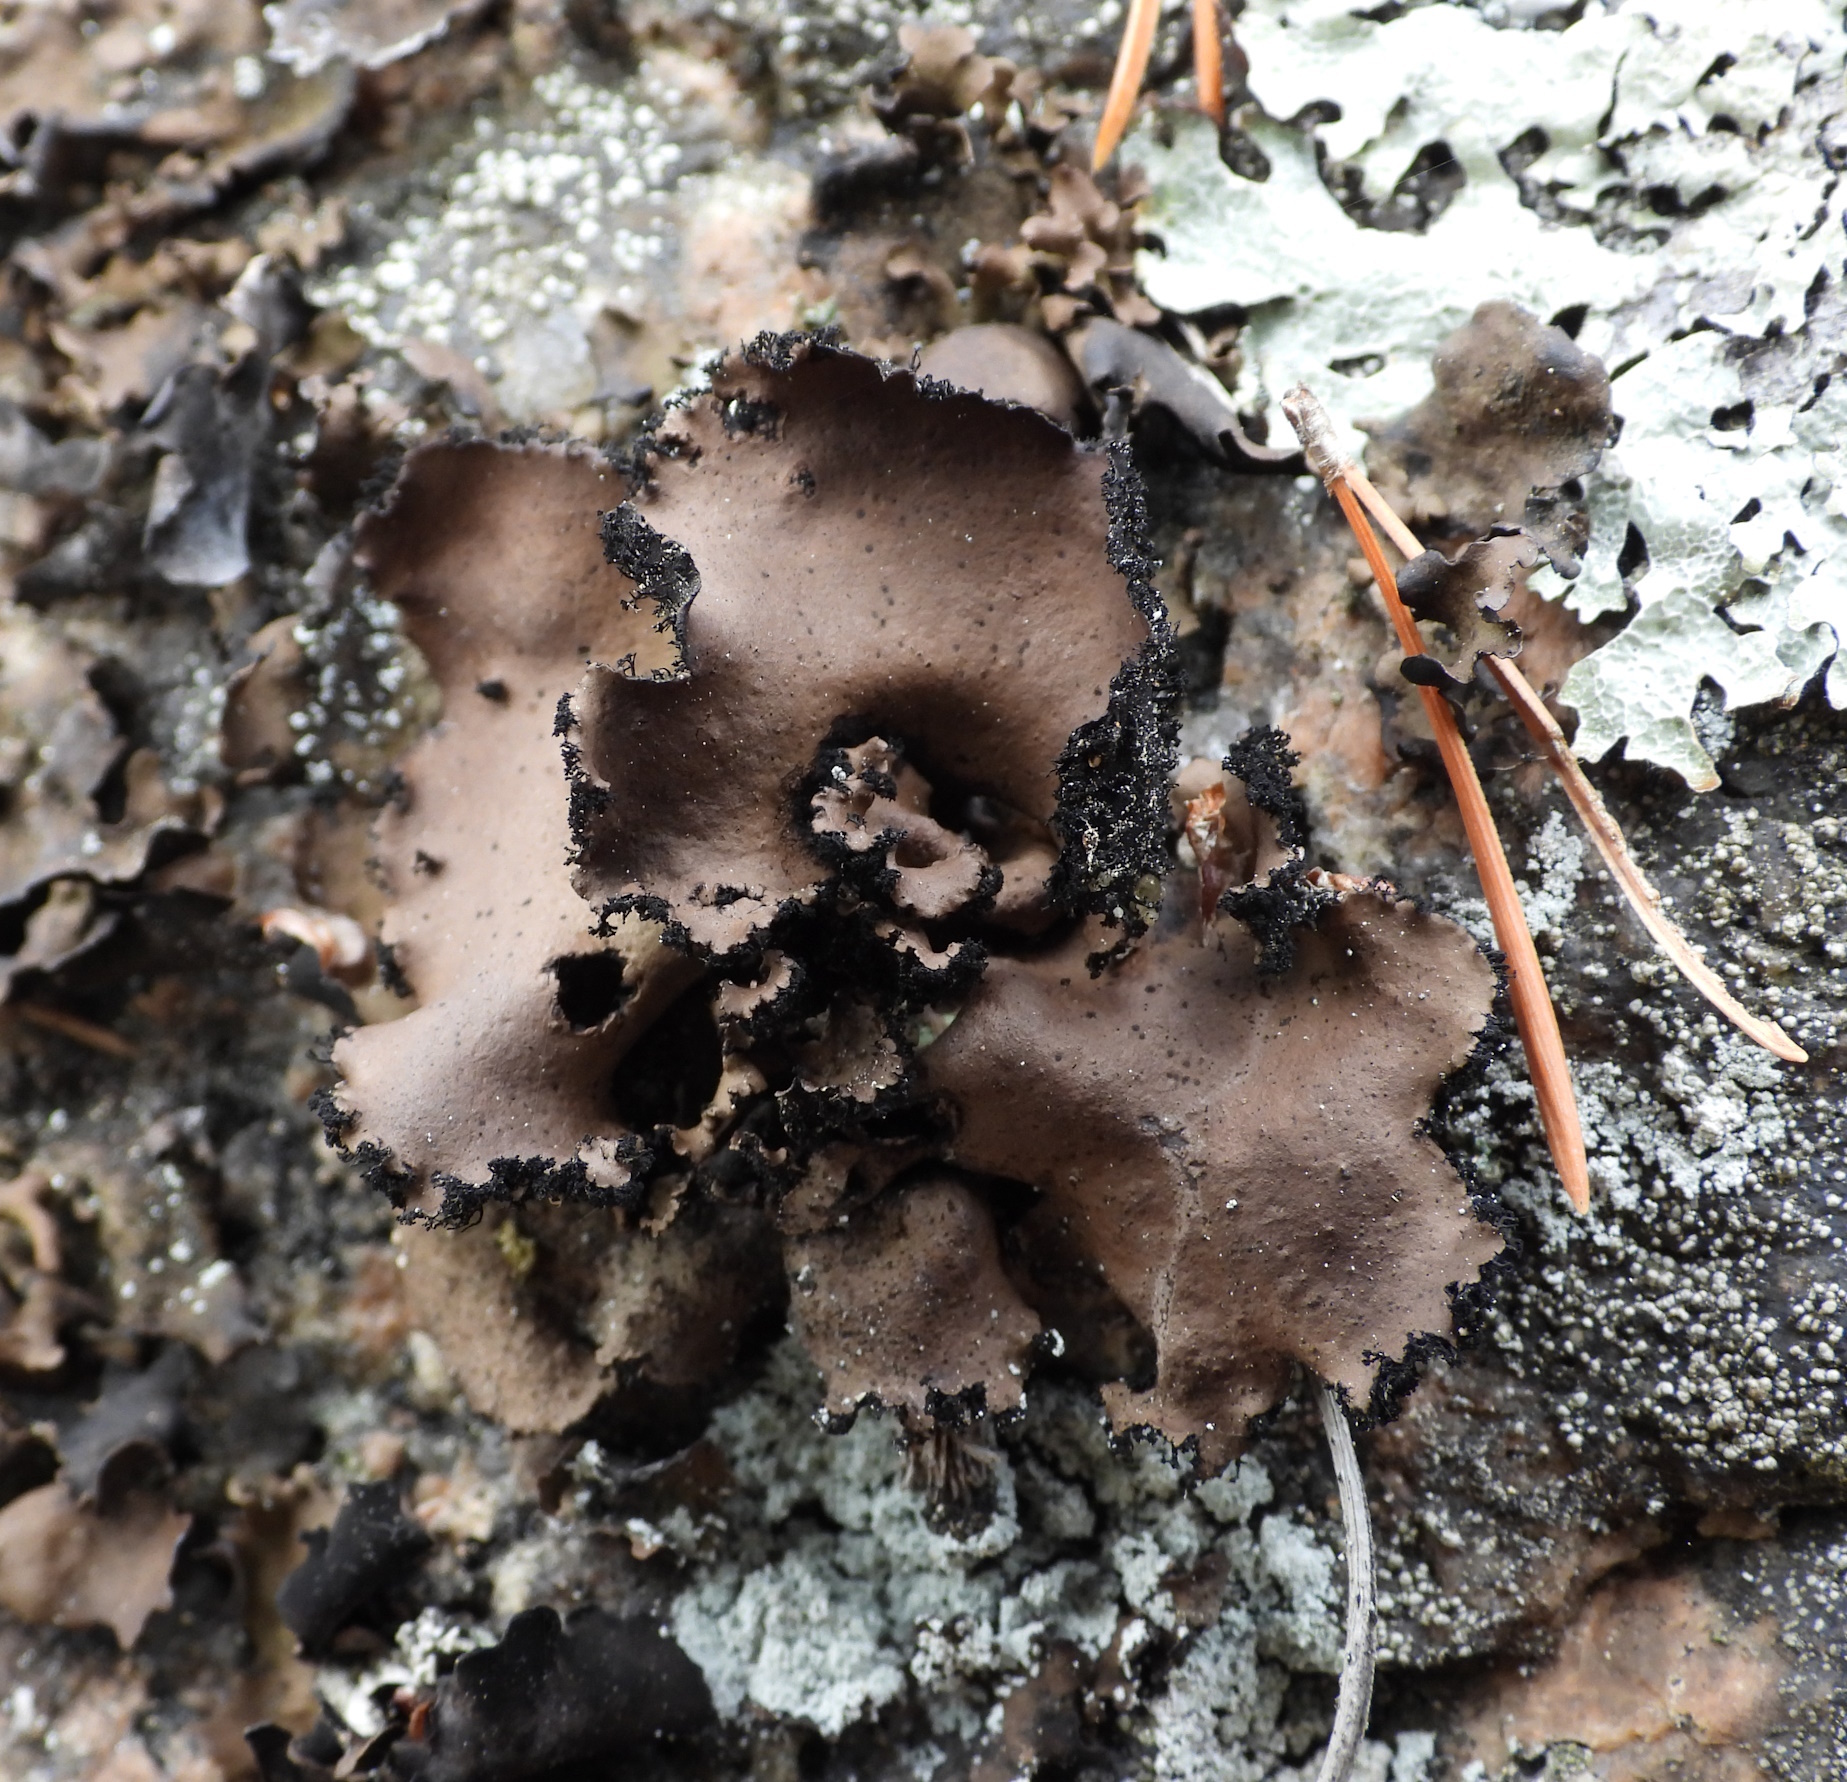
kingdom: Fungi
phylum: Ascomycota
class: Lecanoromycetes
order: Umbilicariales
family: Umbilicariaceae
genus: Umbilicaria
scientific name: Umbilicaria polyrrhiza
